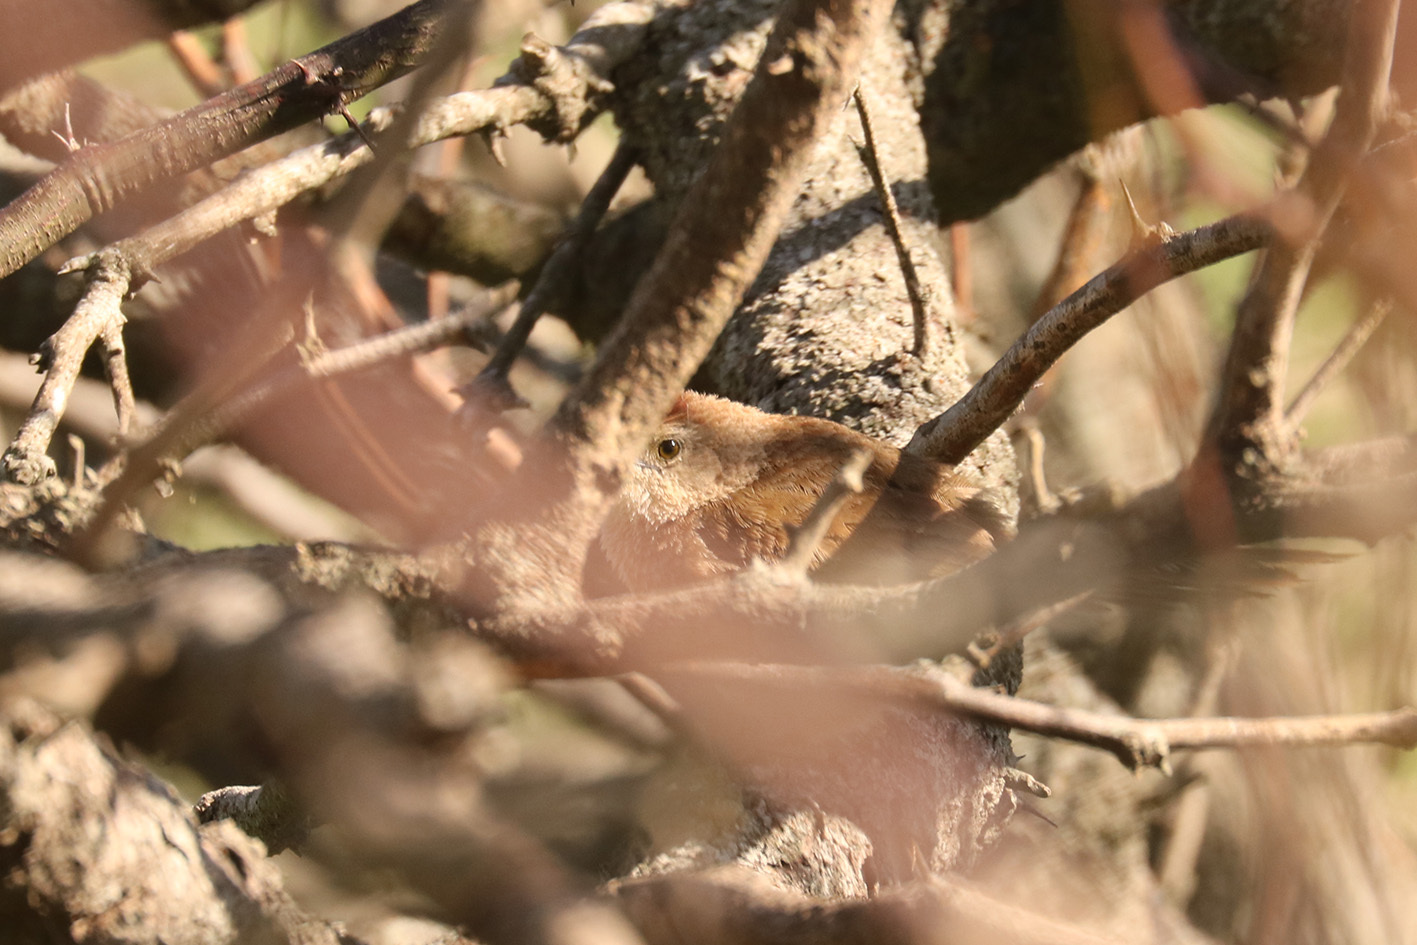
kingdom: Animalia
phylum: Chordata
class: Aves
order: Passeriformes
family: Furnariidae
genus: Phacellodomus
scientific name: Phacellodomus striaticollis
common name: Freckle-breasted thornbird
